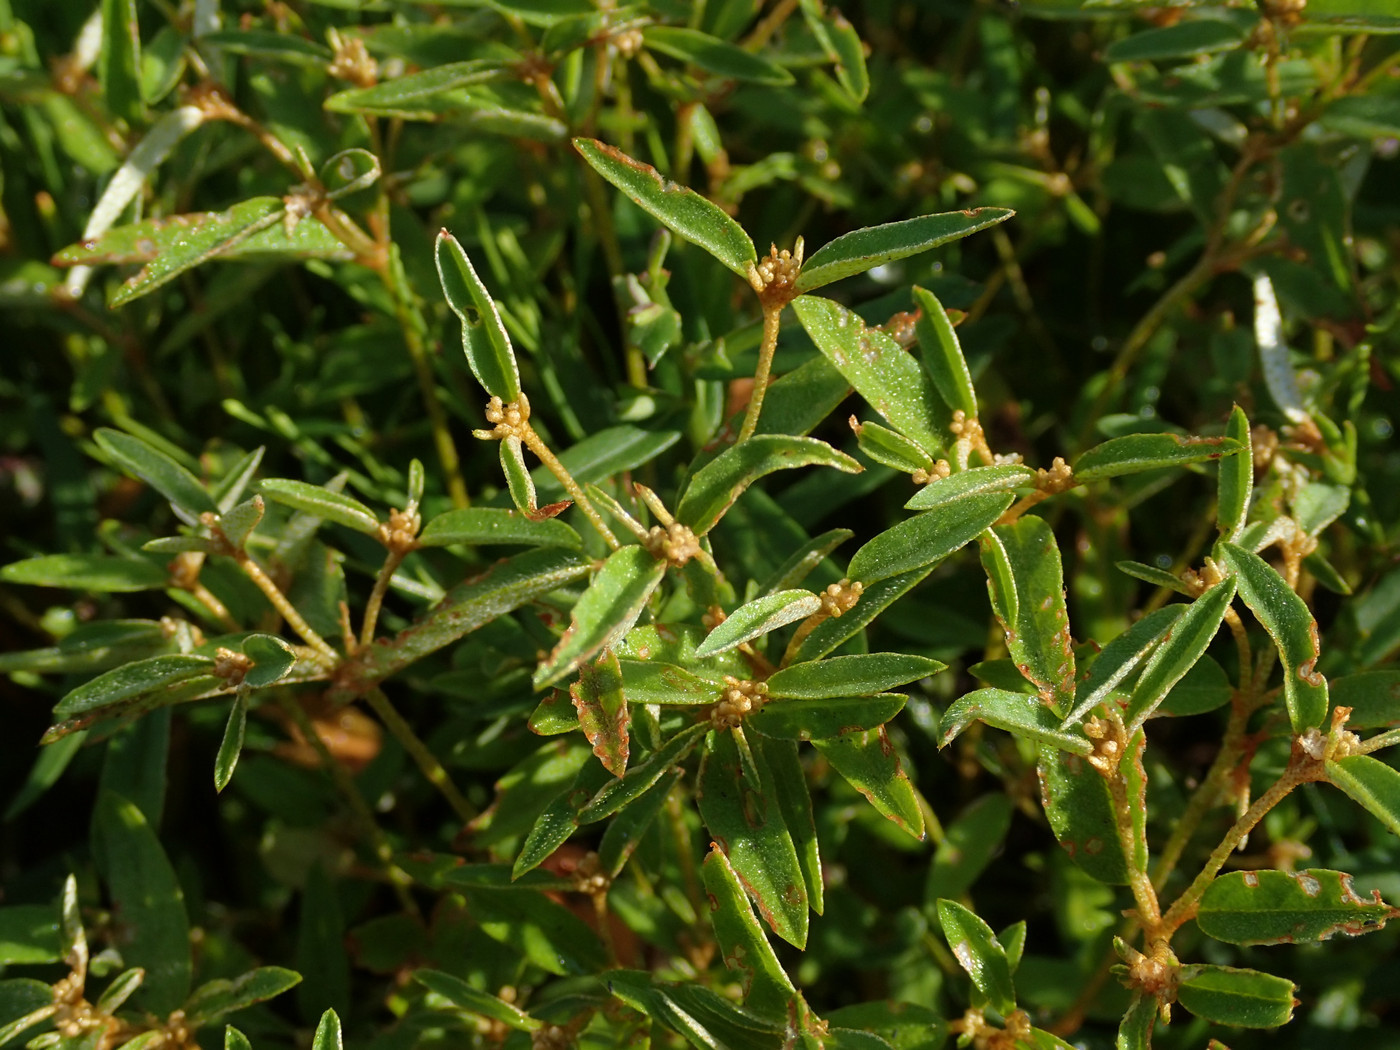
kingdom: Plantae
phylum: Tracheophyta
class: Magnoliopsida
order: Malpighiales
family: Euphorbiaceae
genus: Croton
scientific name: Croton michauxii
